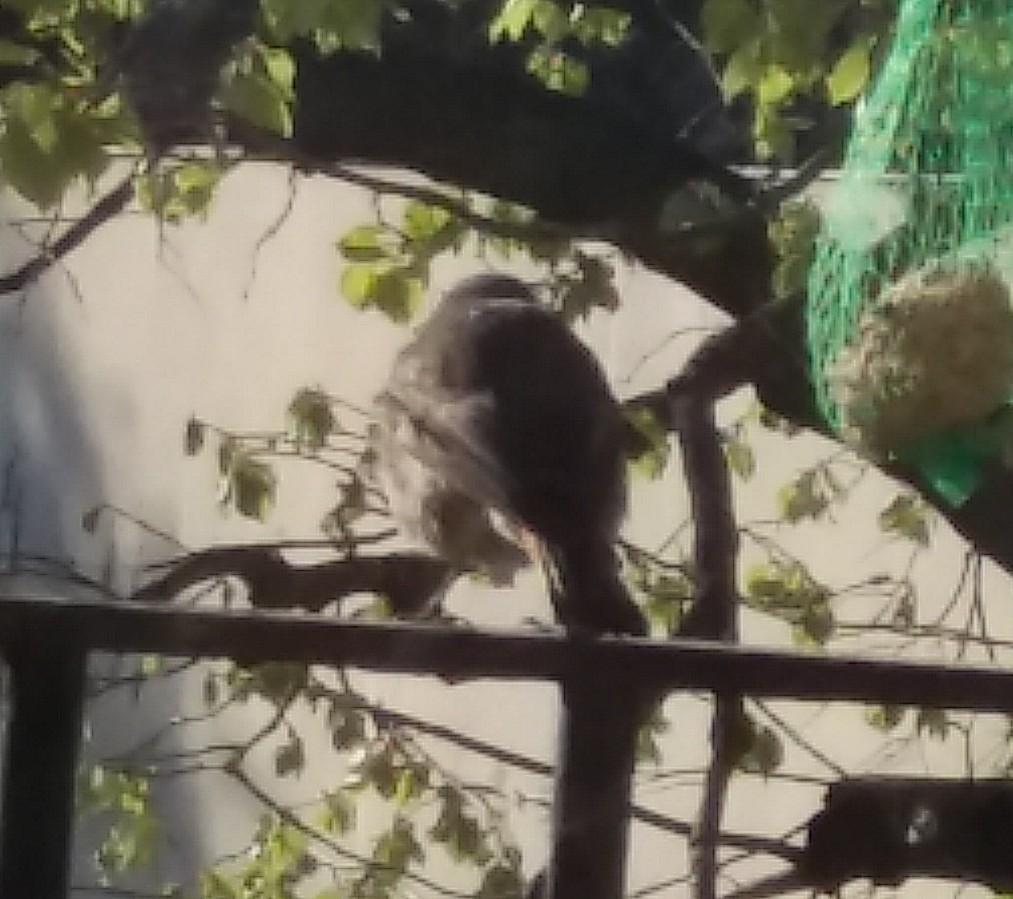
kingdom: Animalia
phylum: Chordata
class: Aves
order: Passeriformes
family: Muscicapidae
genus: Phoenicurus
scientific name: Phoenicurus ochruros
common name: Black redstart
